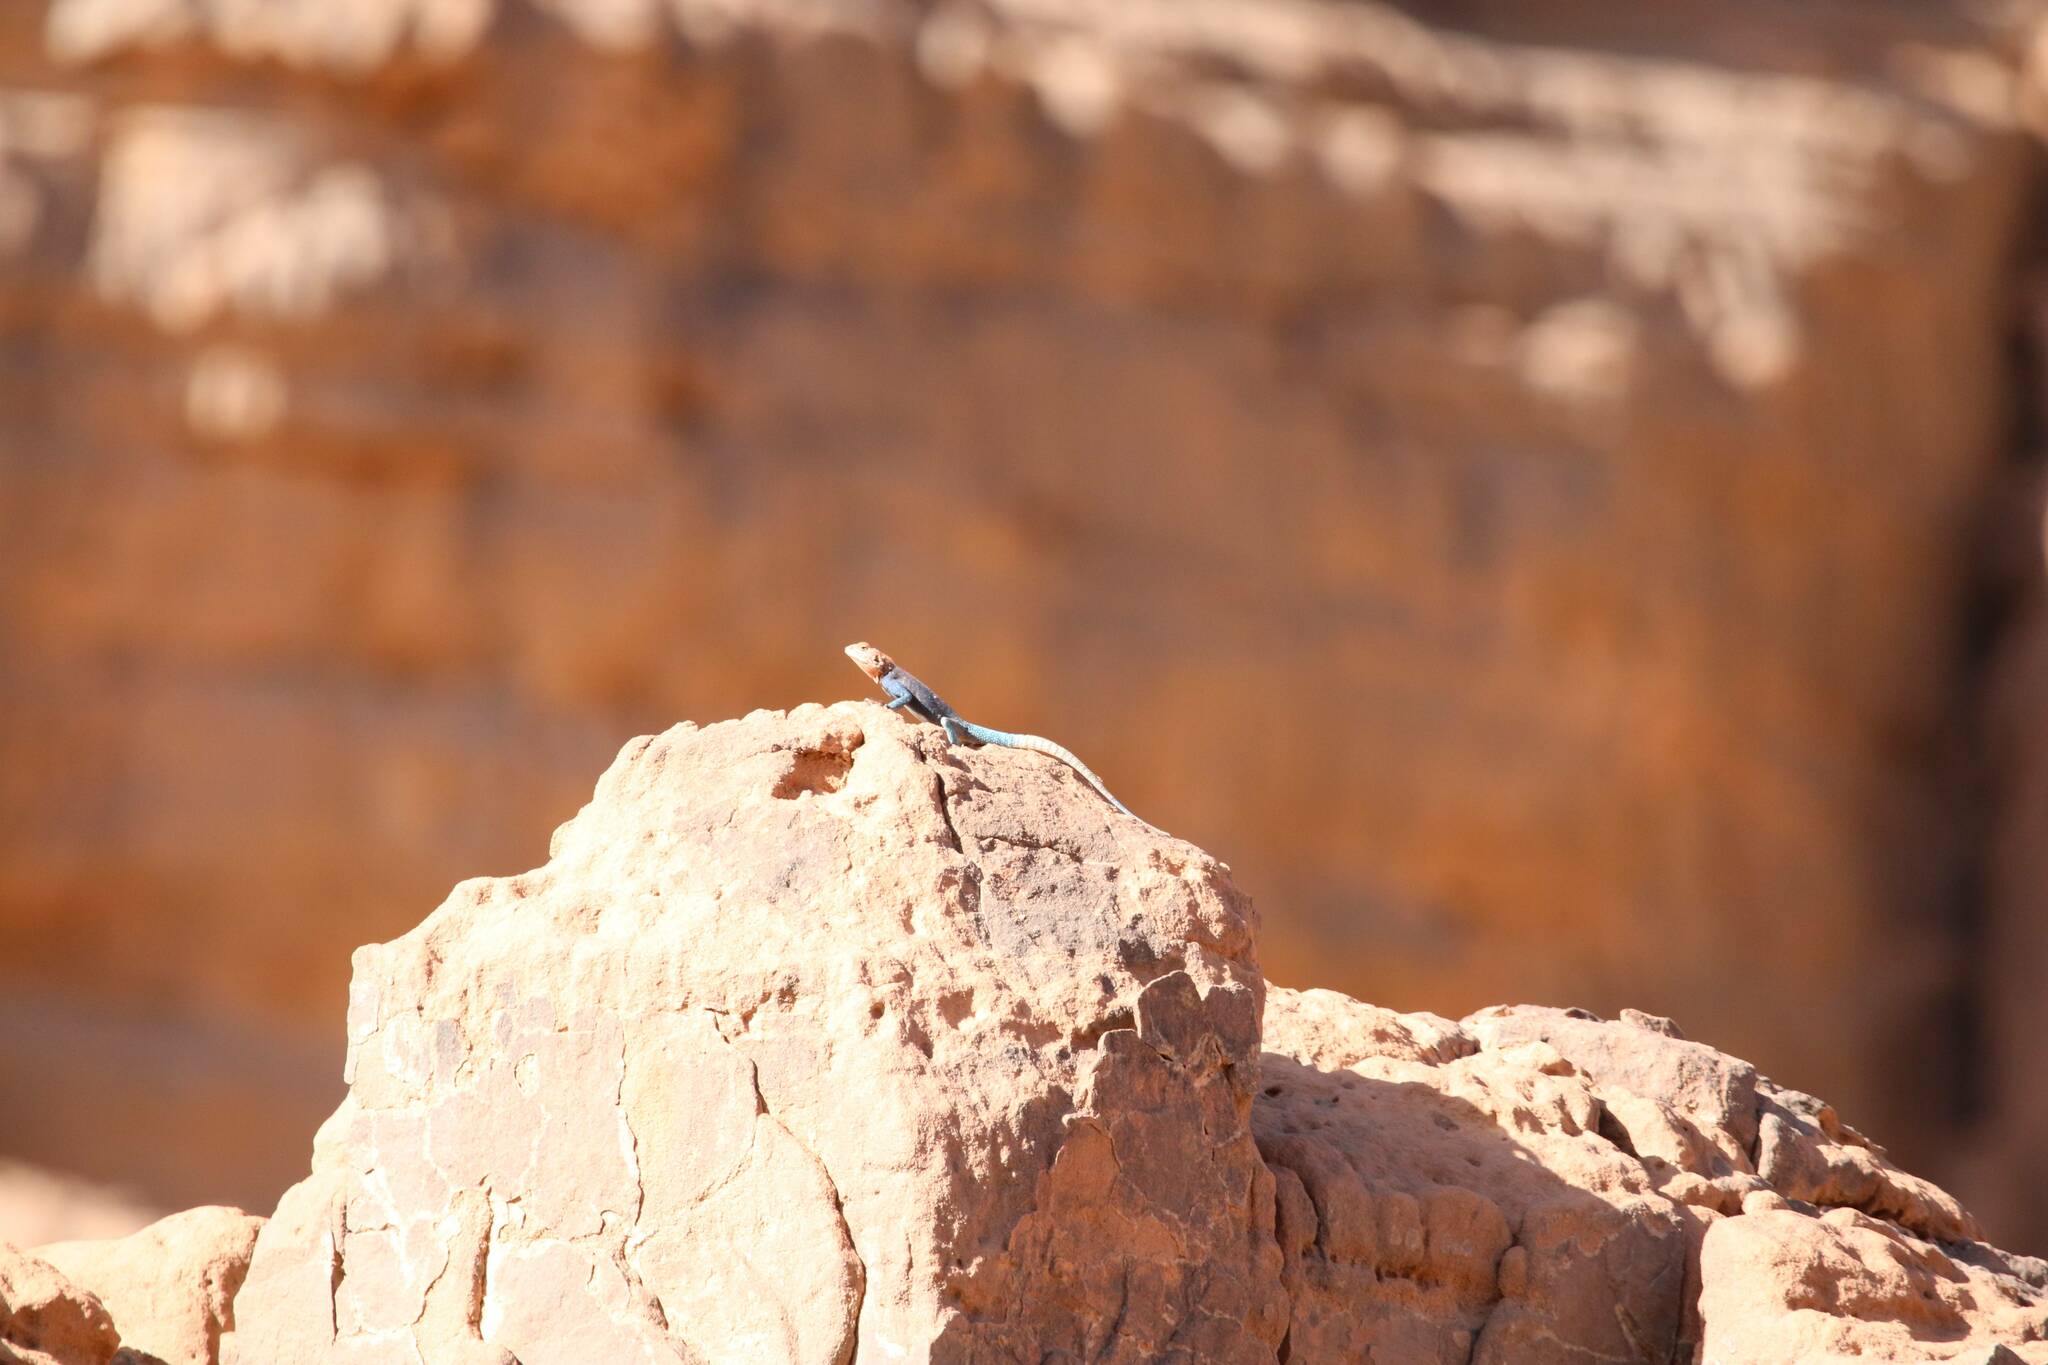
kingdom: Animalia
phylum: Chordata
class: Squamata
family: Agamidae
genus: Agama
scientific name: Agama tassiliensis
